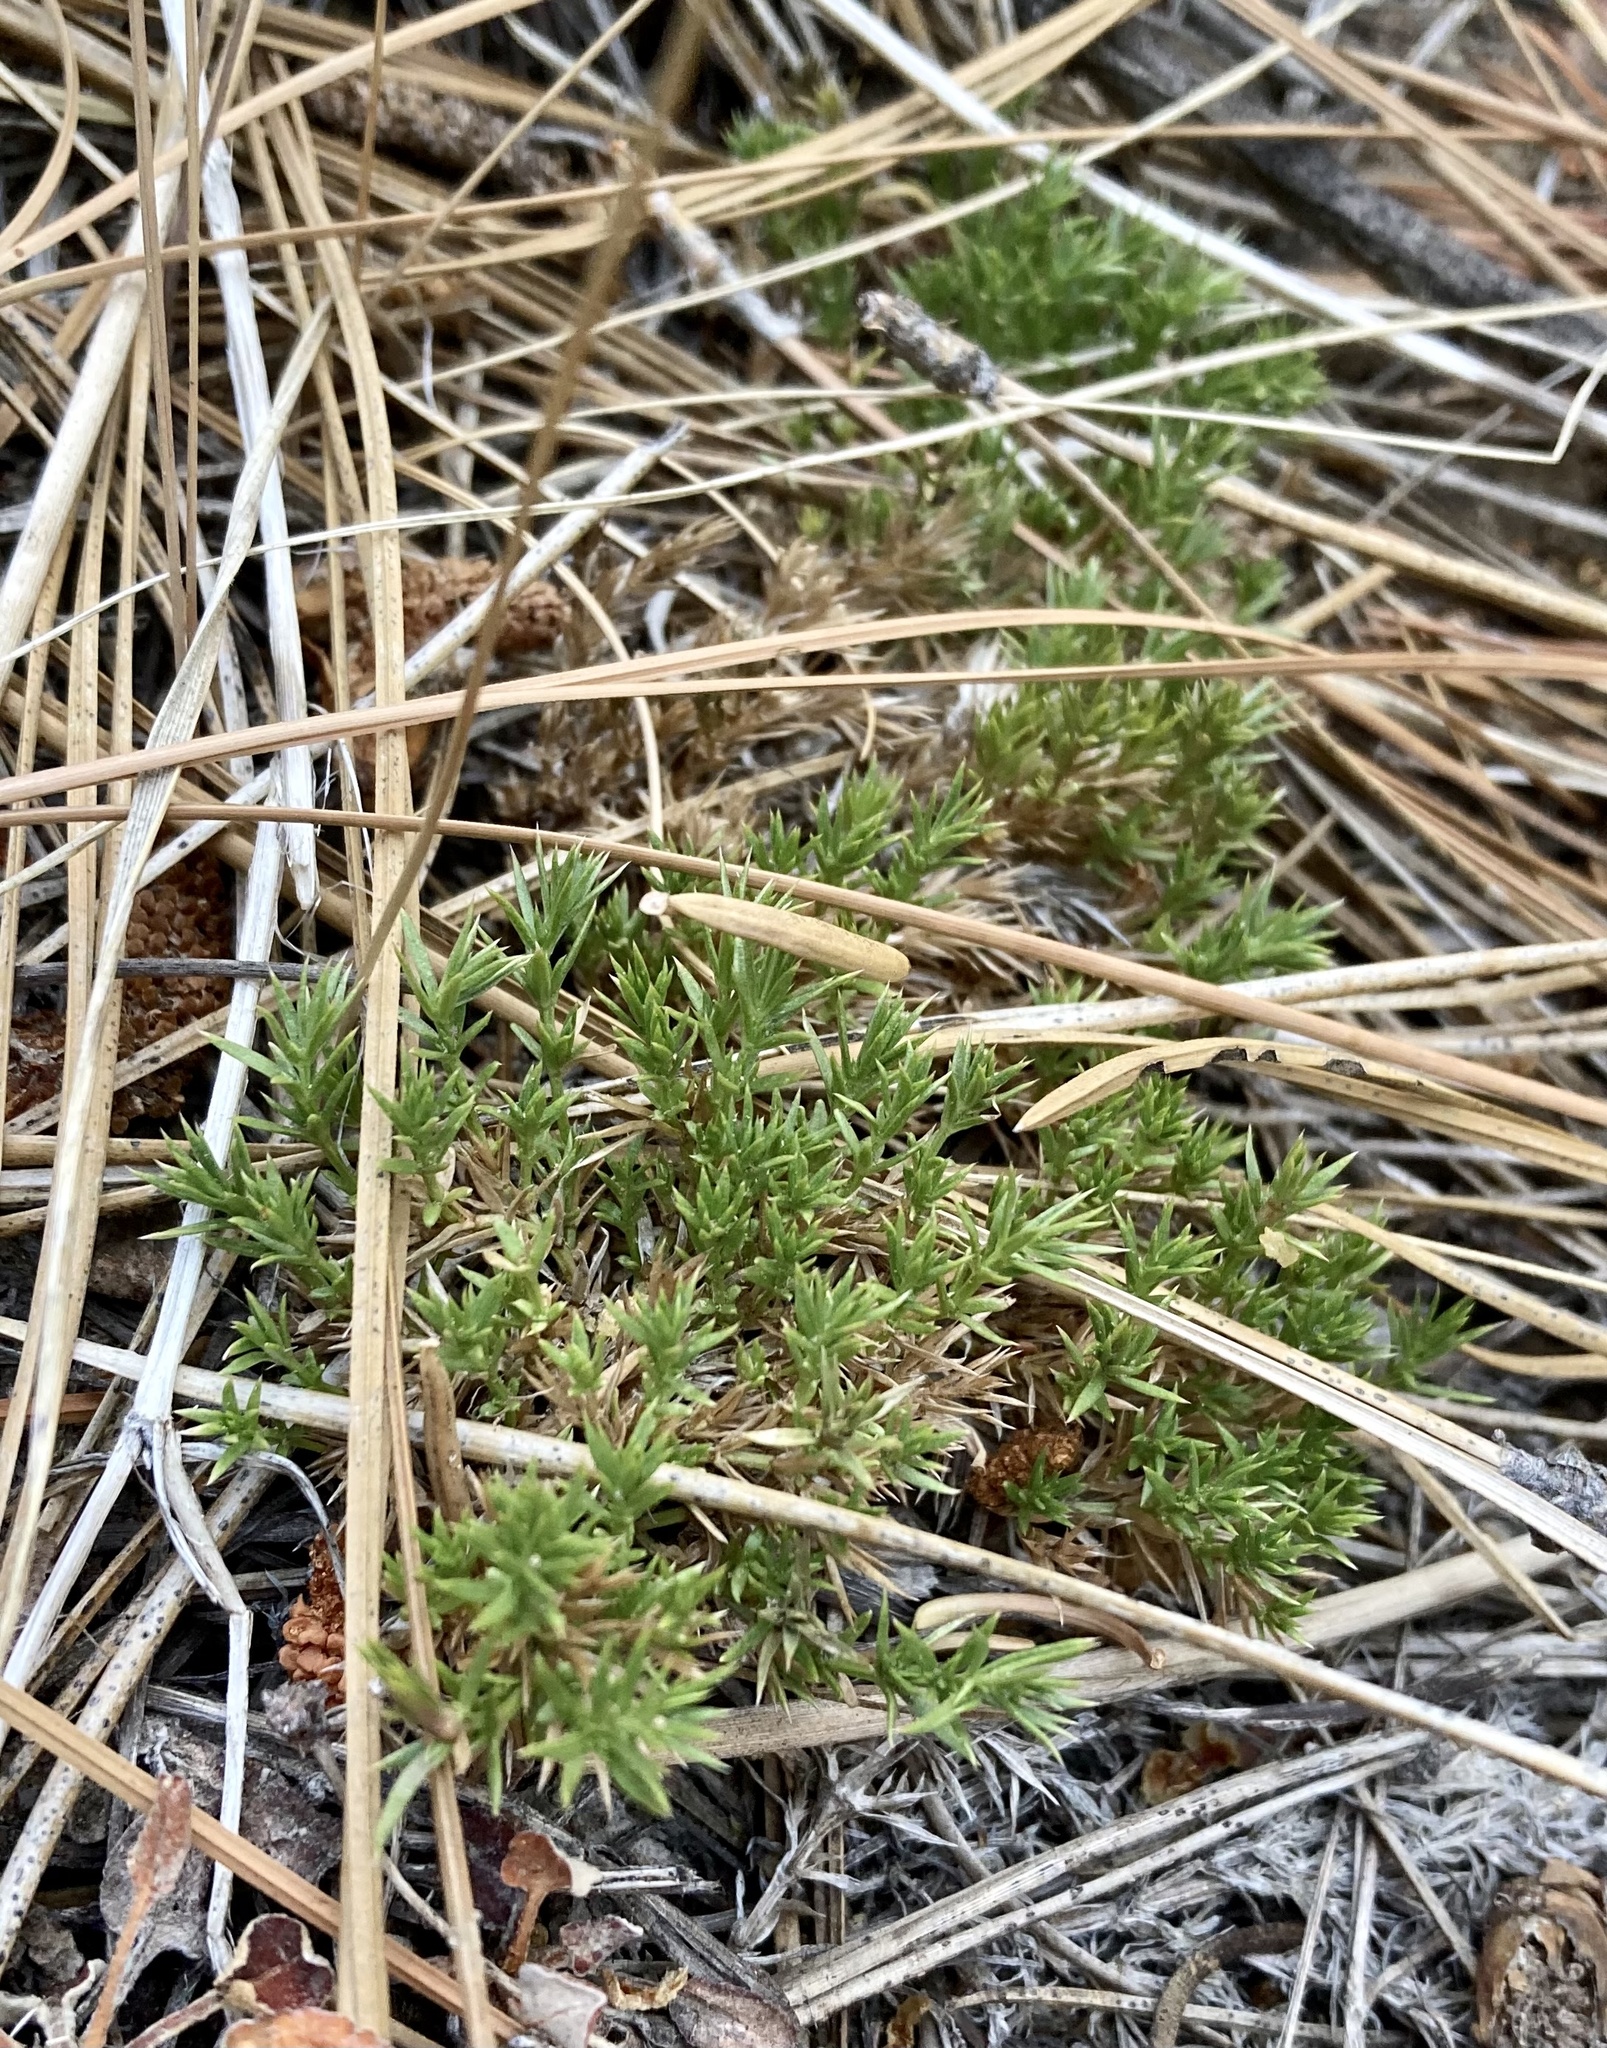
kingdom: Plantae
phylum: Tracheophyta
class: Magnoliopsida
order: Gentianales
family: Rubiaceae
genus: Galium
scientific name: Galium andrewsii
